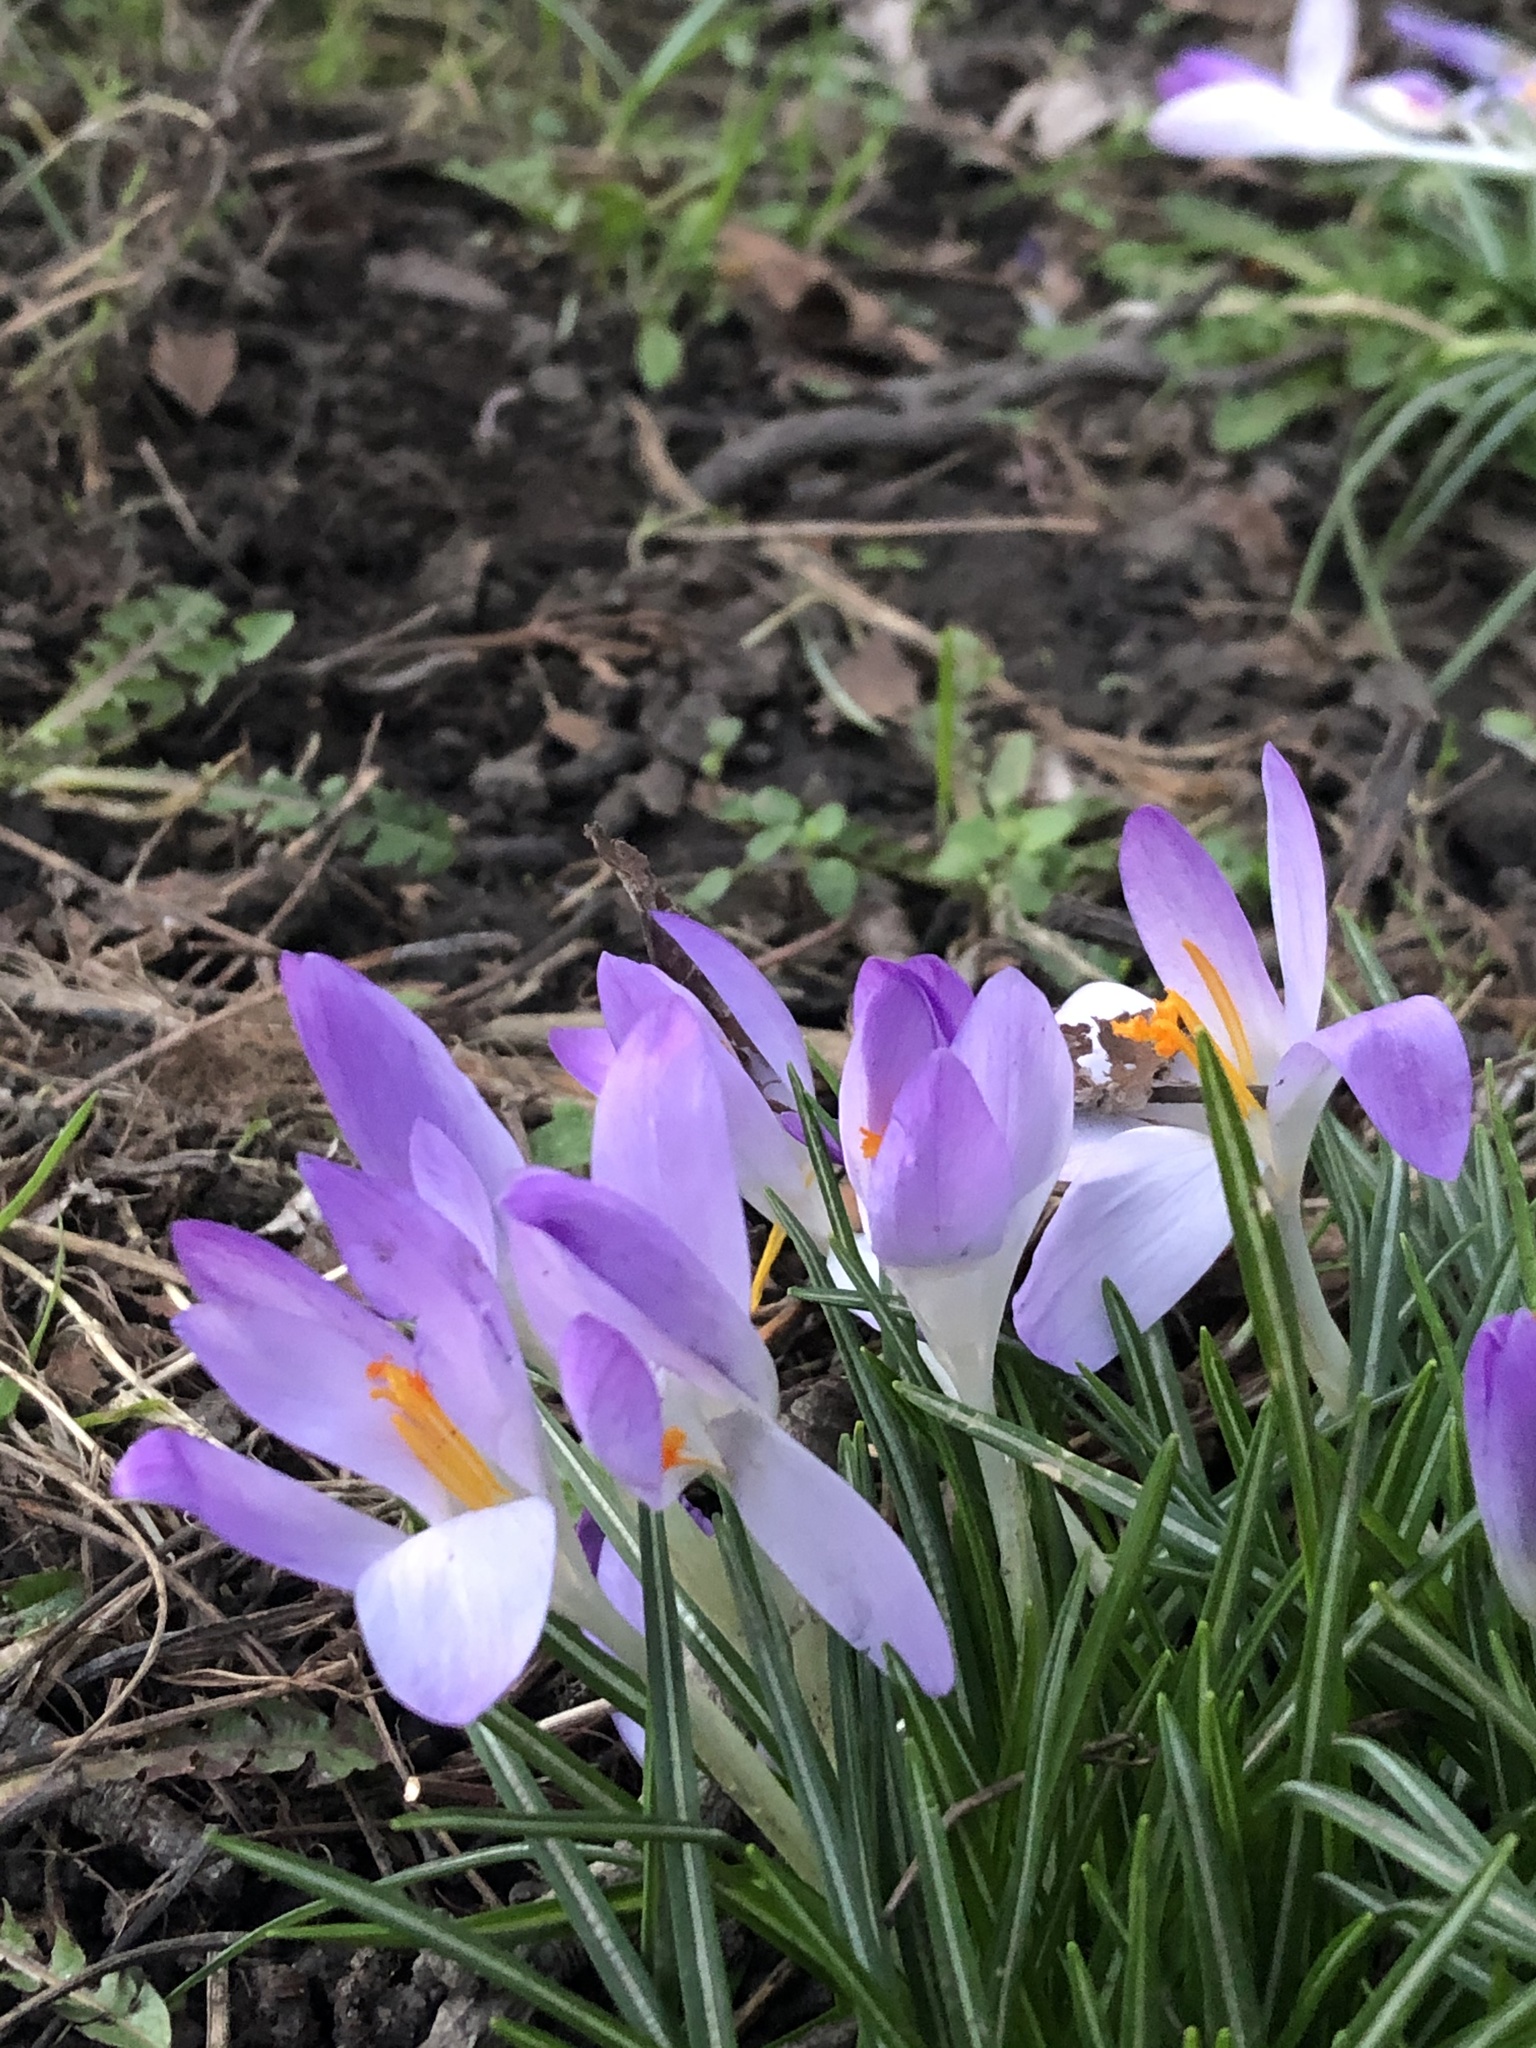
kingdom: Plantae
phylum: Tracheophyta
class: Liliopsida
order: Asparagales
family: Iridaceae
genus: Crocus
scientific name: Crocus tommasinianus
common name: Early crocus
